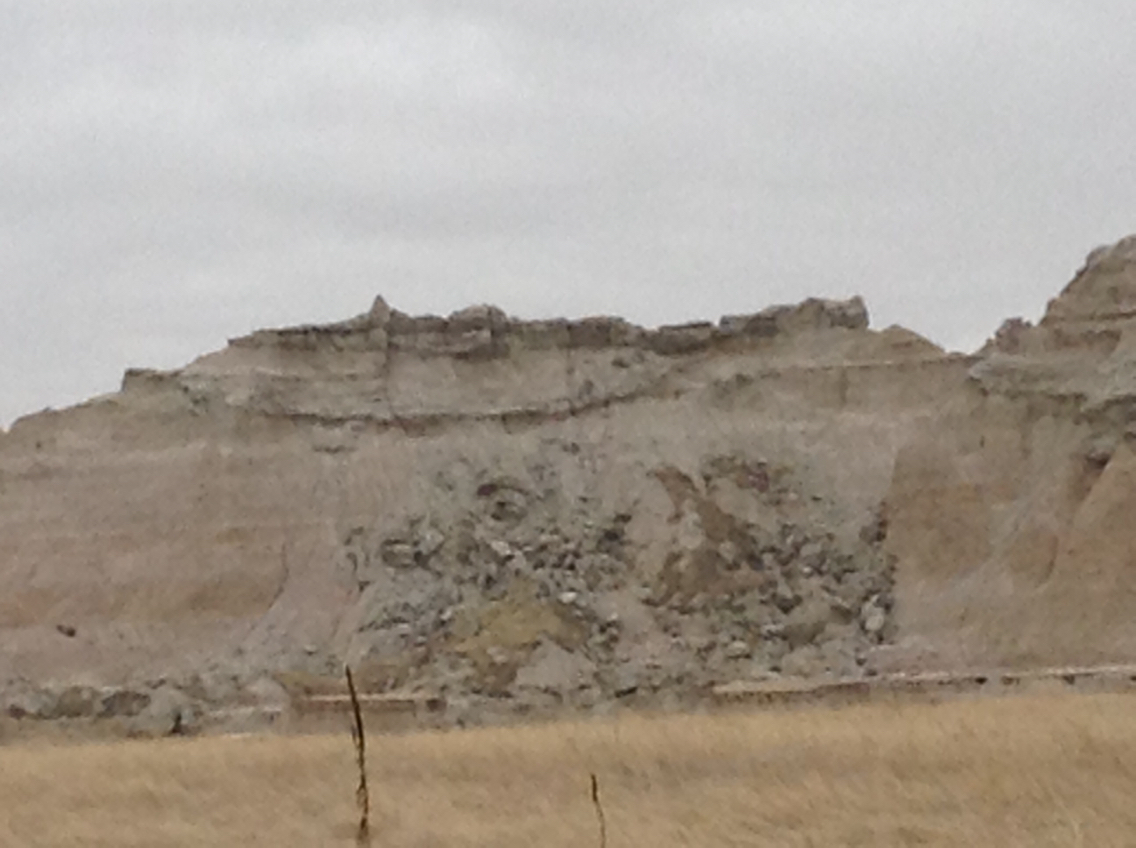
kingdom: Animalia
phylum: Chordata
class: Mammalia
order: Carnivora
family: Felidae
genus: Lynx
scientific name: Lynx rufus
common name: Bobcat
